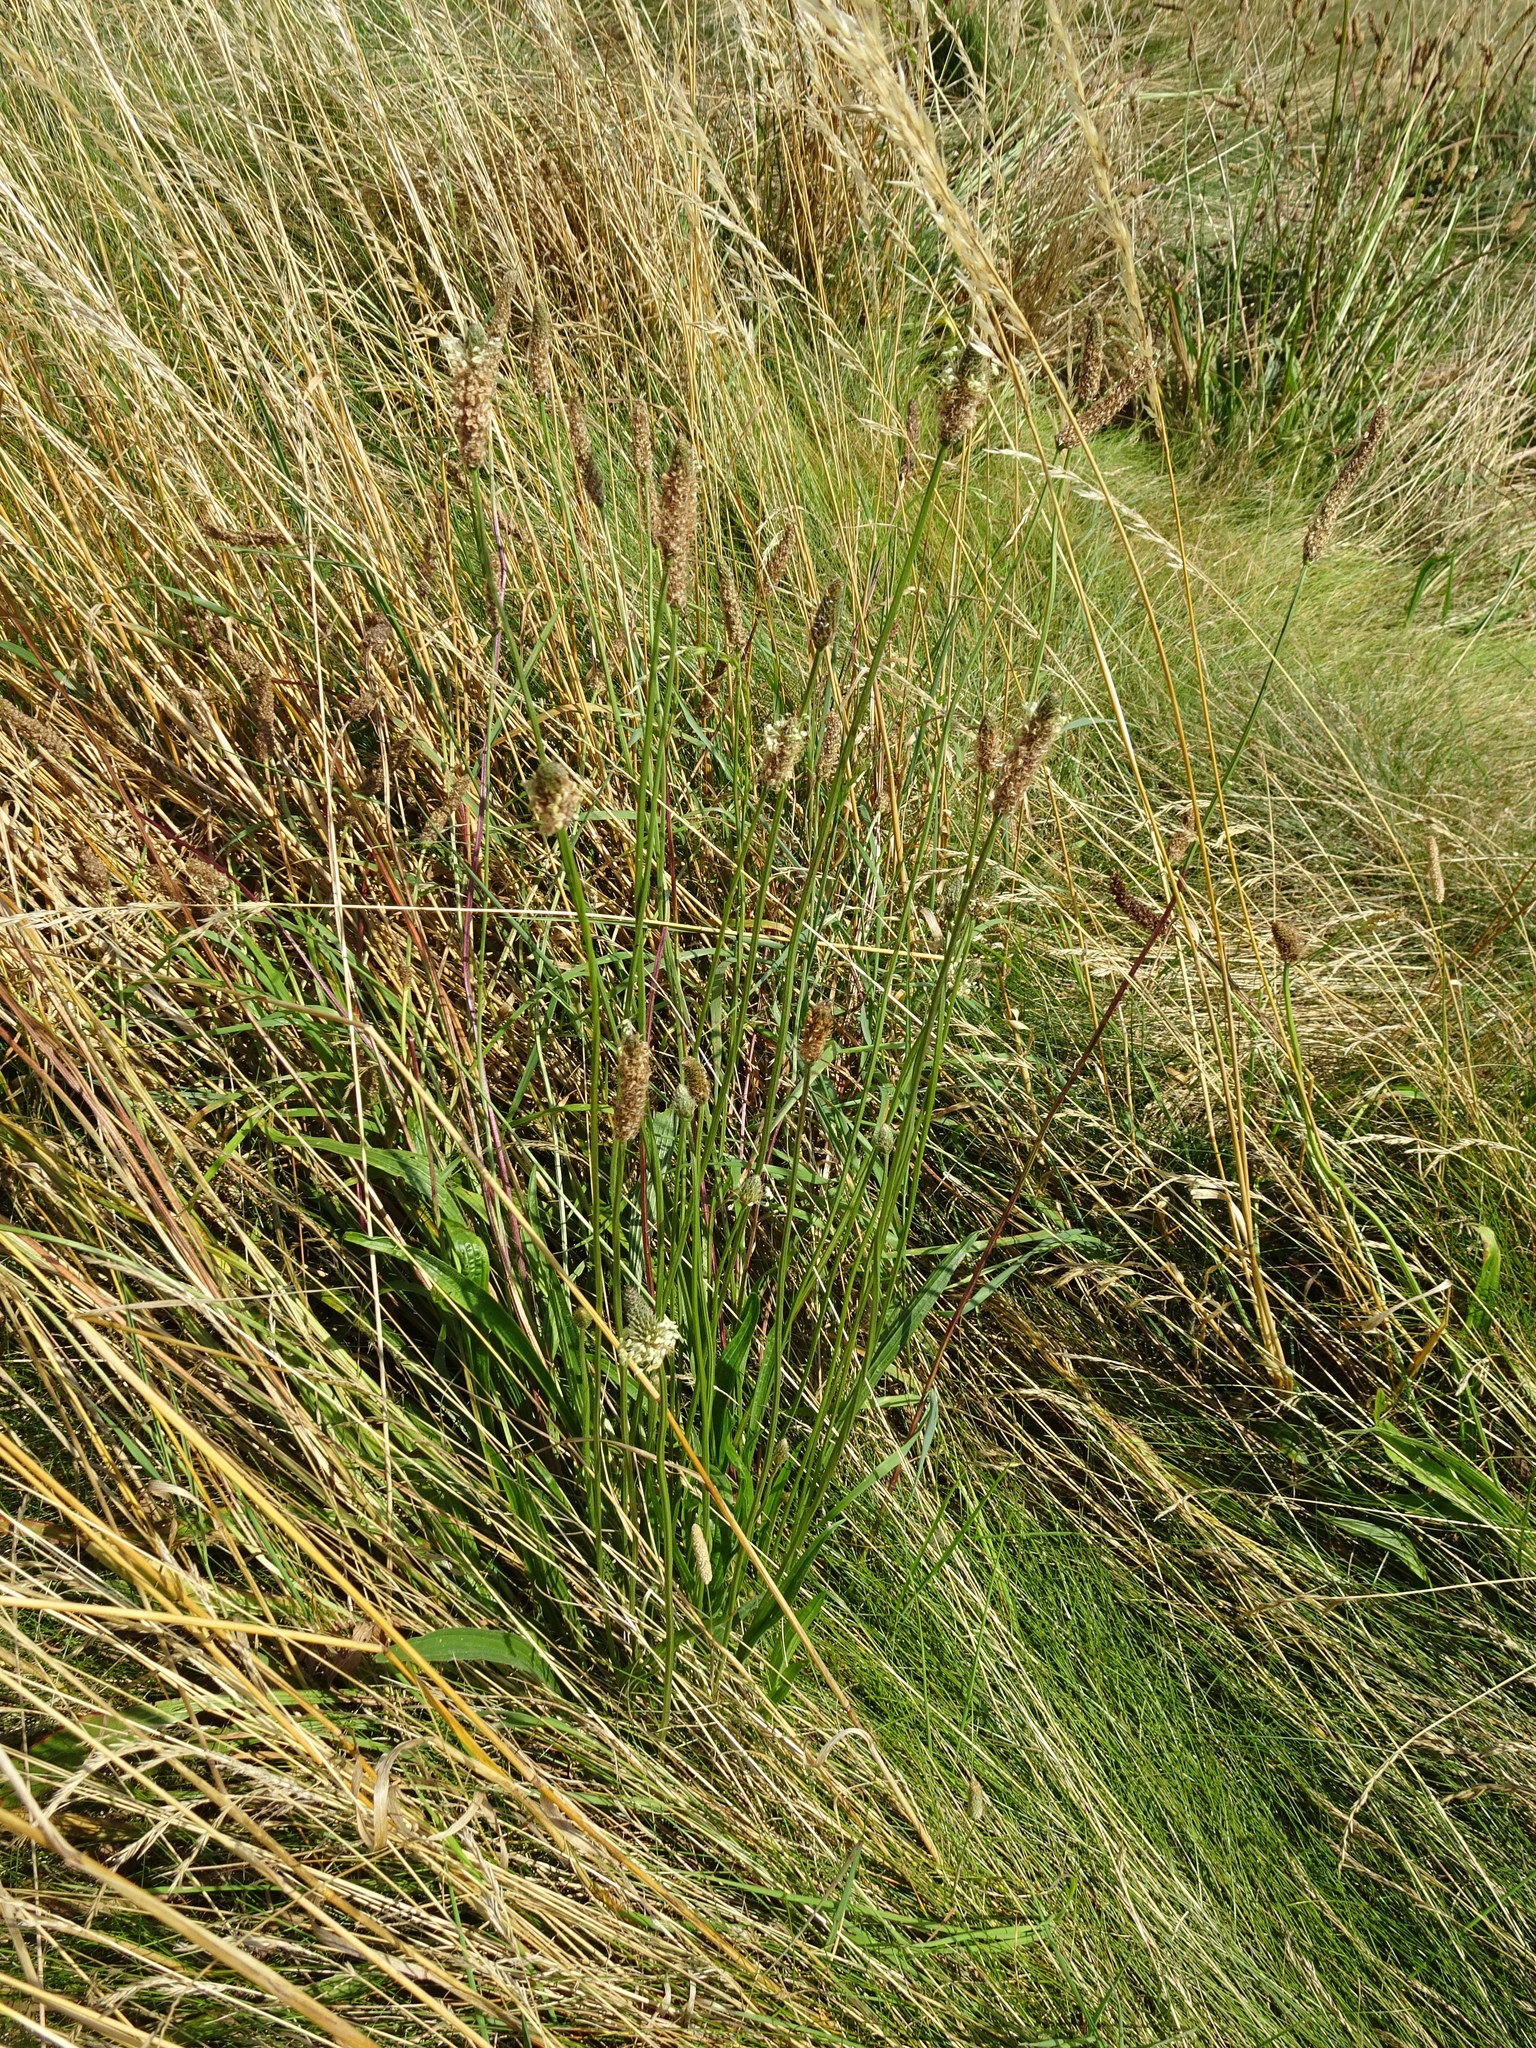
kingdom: Plantae
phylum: Tracheophyta
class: Magnoliopsida
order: Lamiales
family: Plantaginaceae
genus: Plantago
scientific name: Plantago lanceolata
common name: Ribwort plantain
